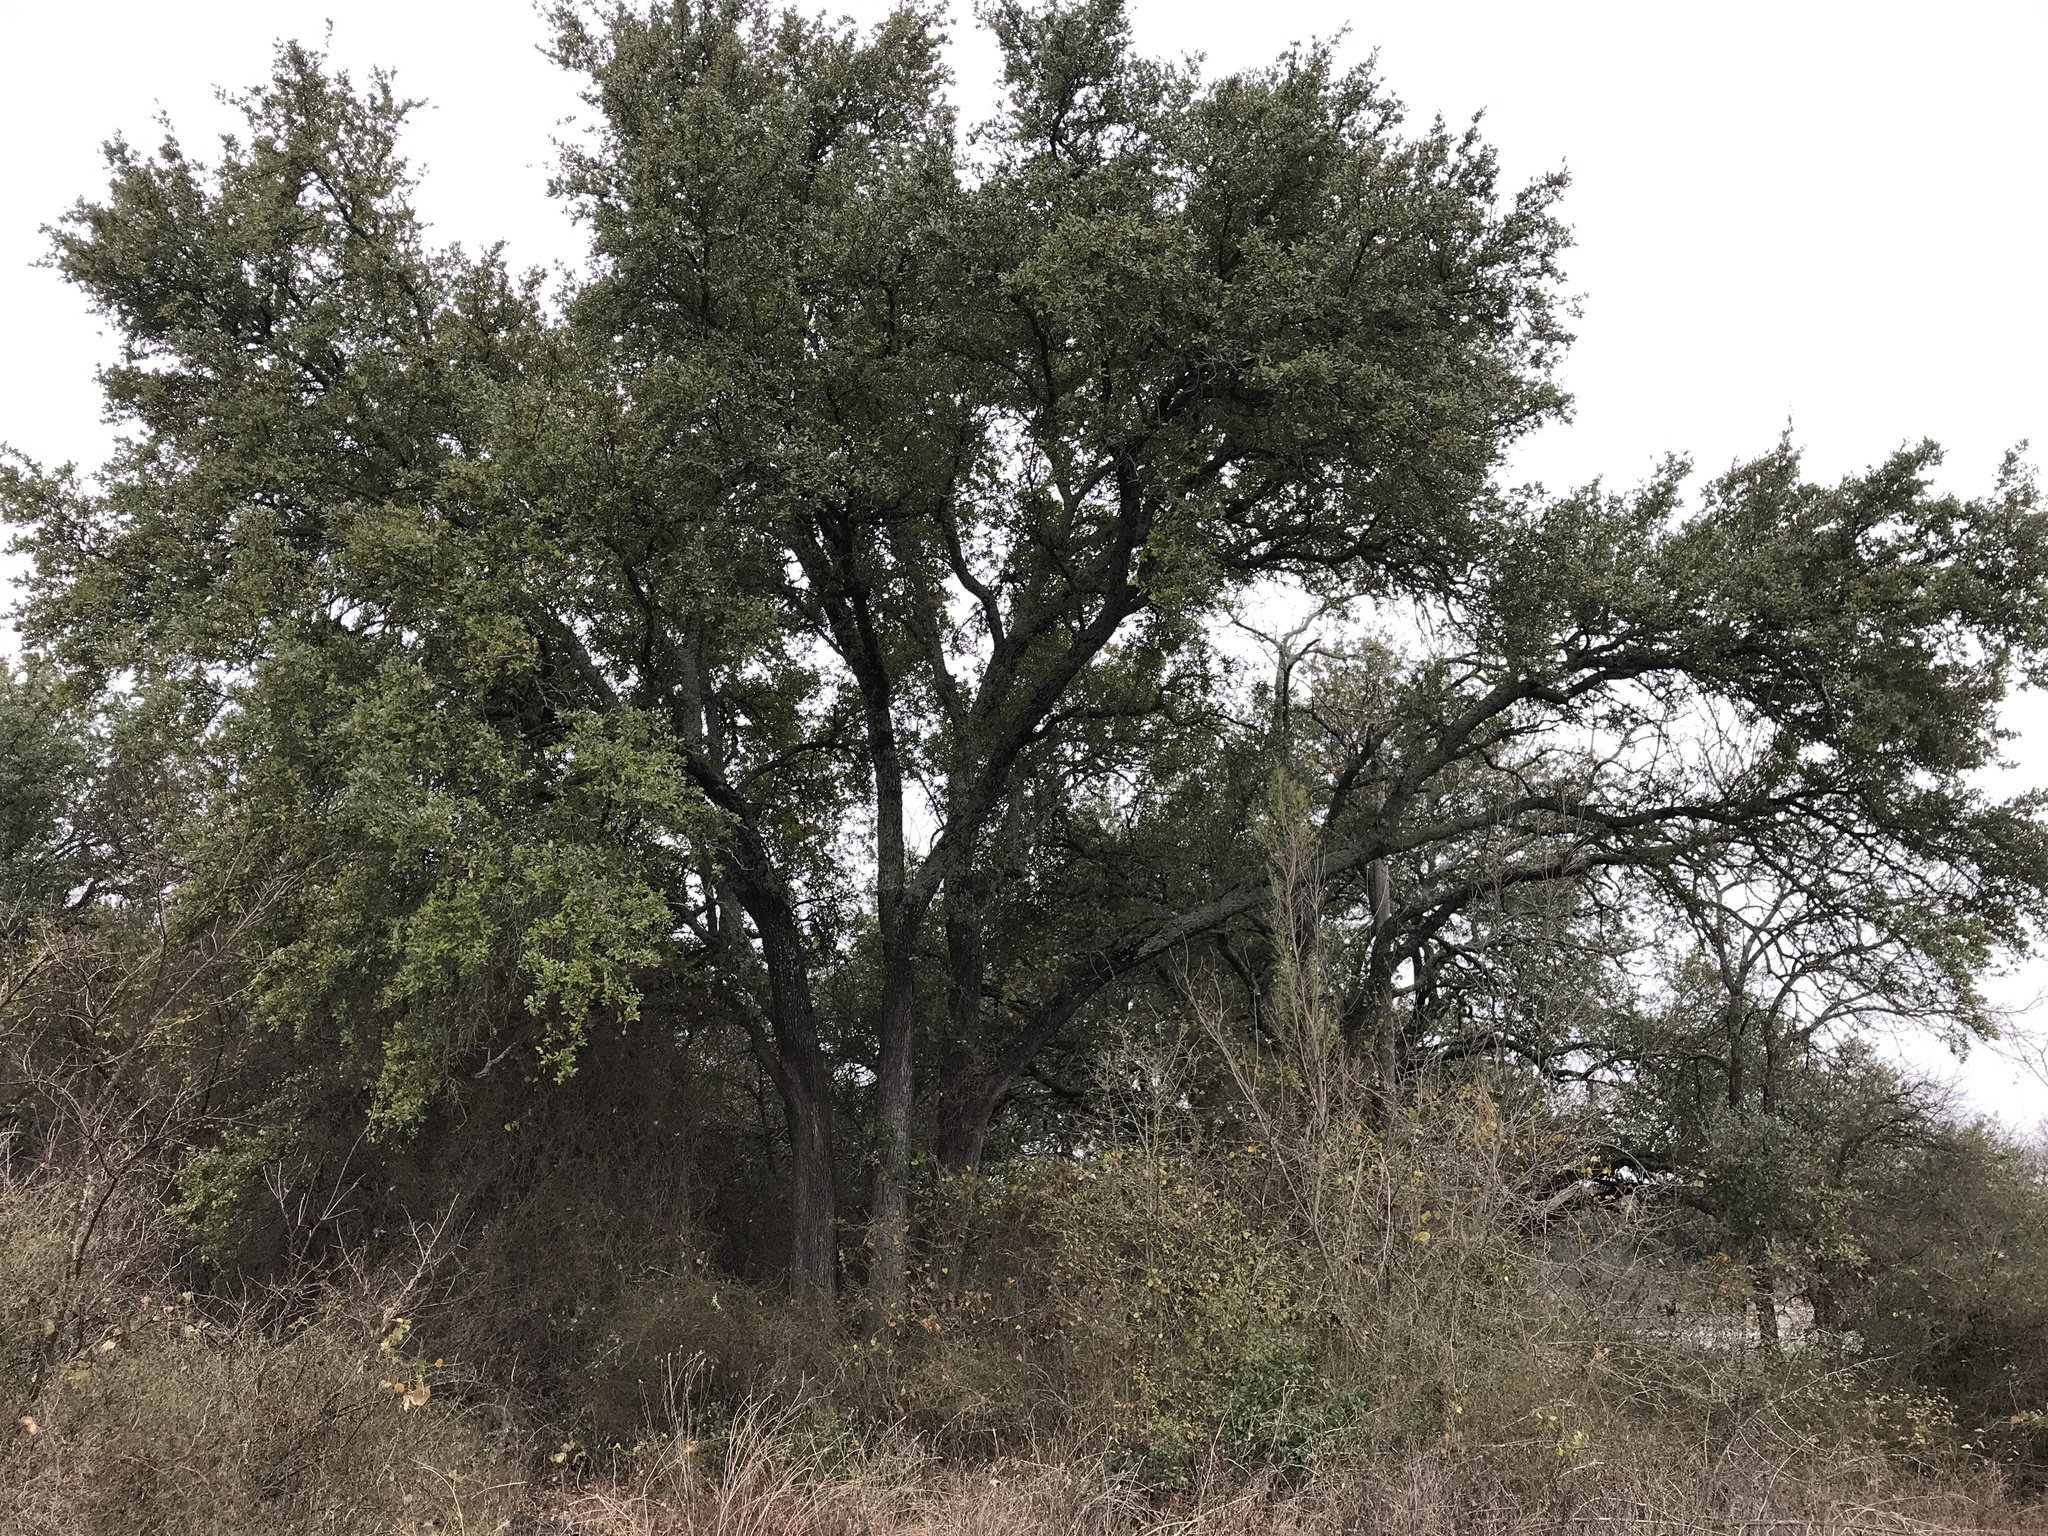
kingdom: Plantae
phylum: Tracheophyta
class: Magnoliopsida
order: Fagales
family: Fagaceae
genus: Quercus
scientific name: Quercus fusiformis
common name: Texas live oak
